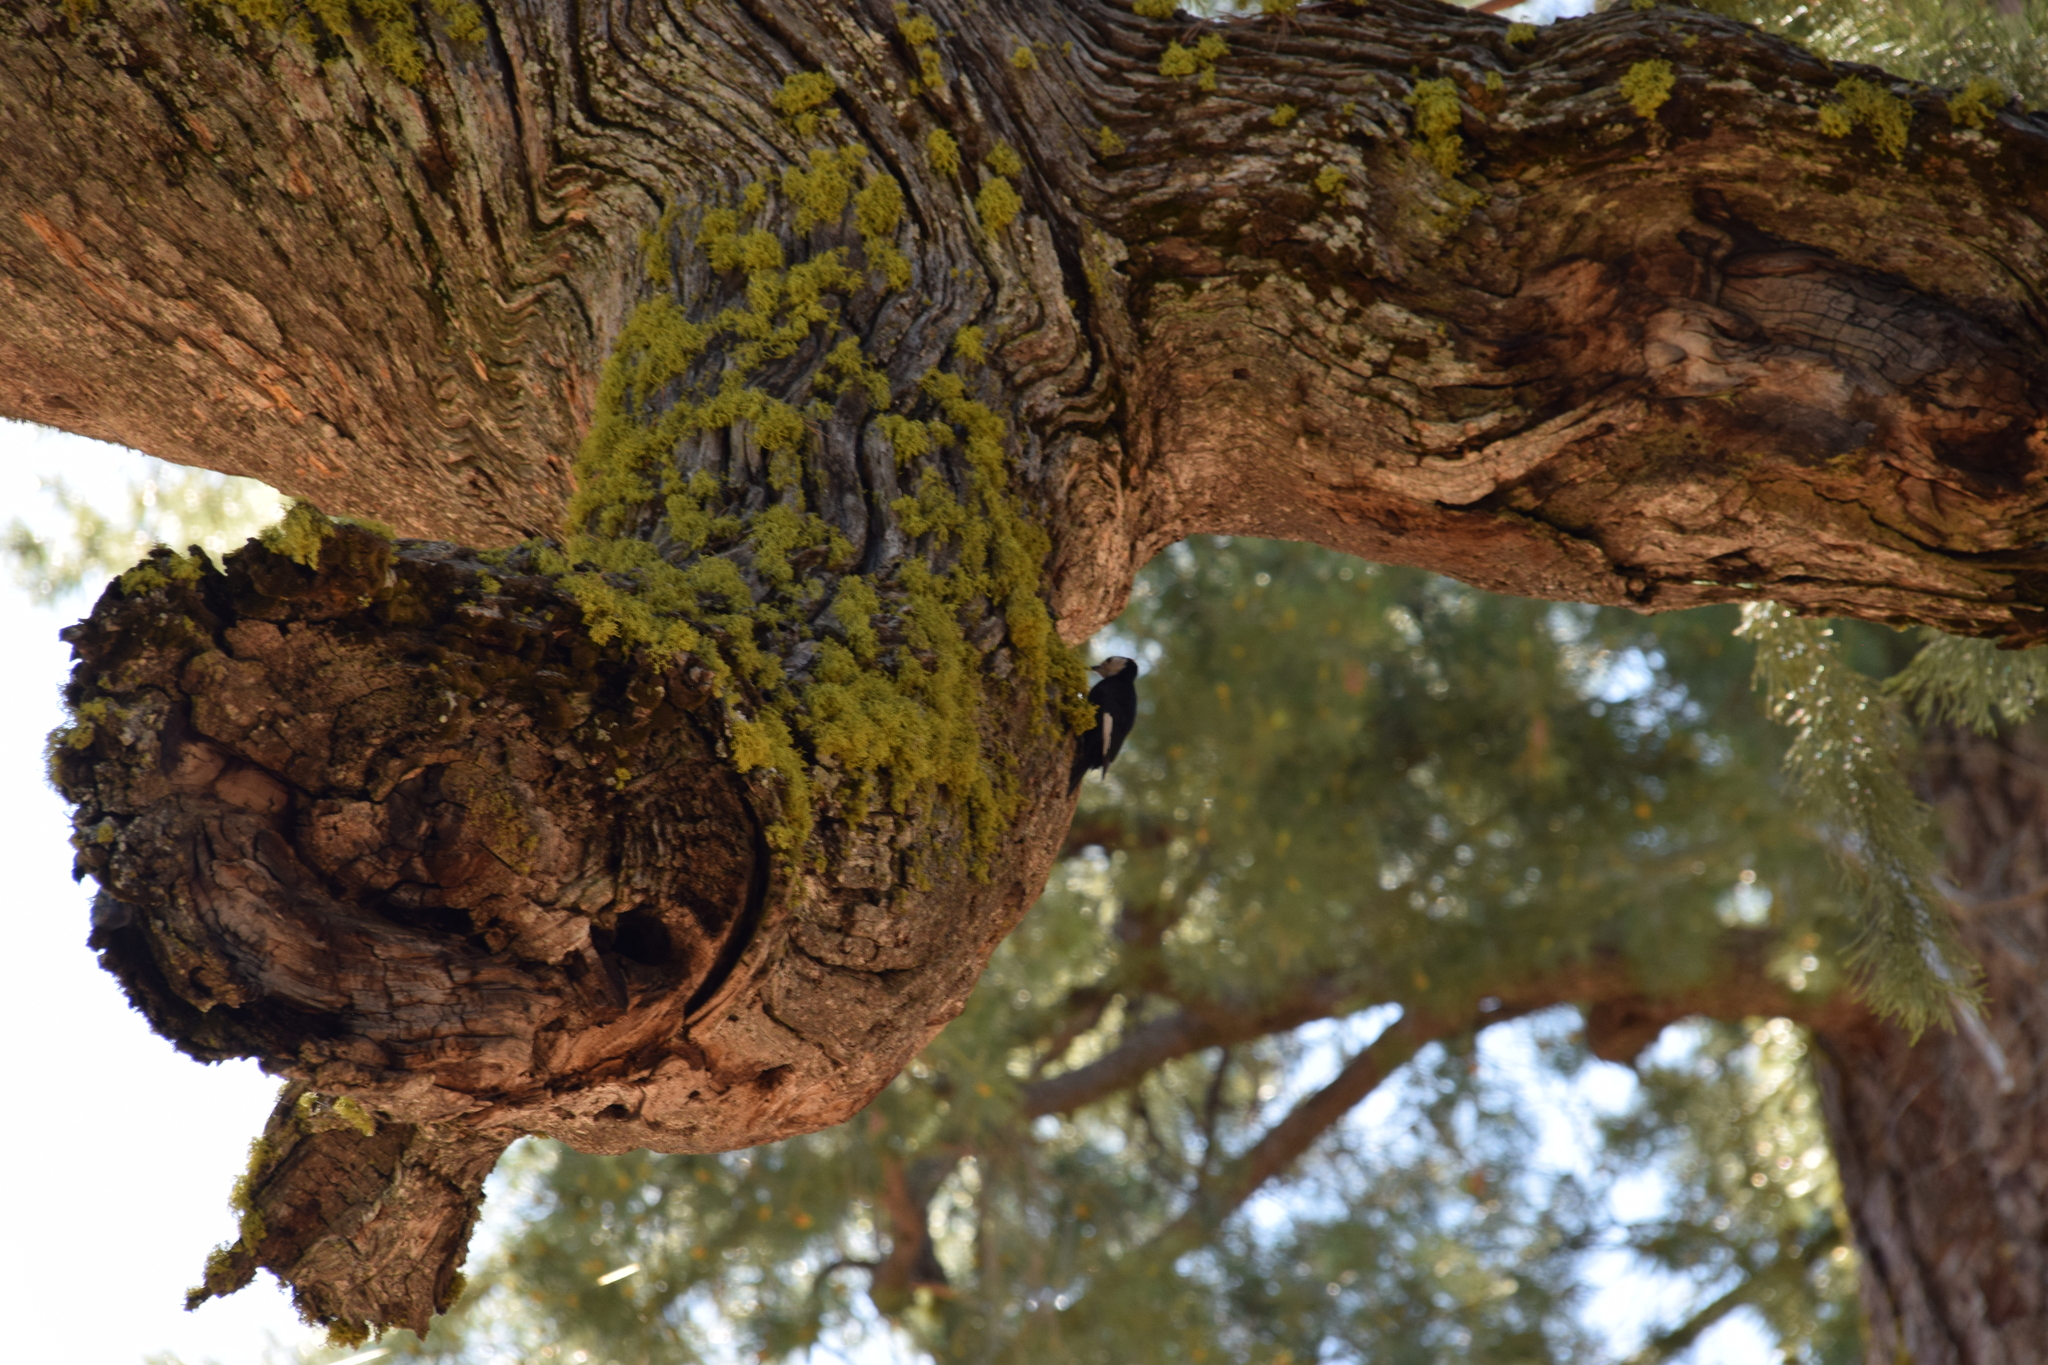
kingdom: Animalia
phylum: Chordata
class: Aves
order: Piciformes
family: Picidae
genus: Leuconotopicus
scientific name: Leuconotopicus albolarvatus
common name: White-headed woodpecker
